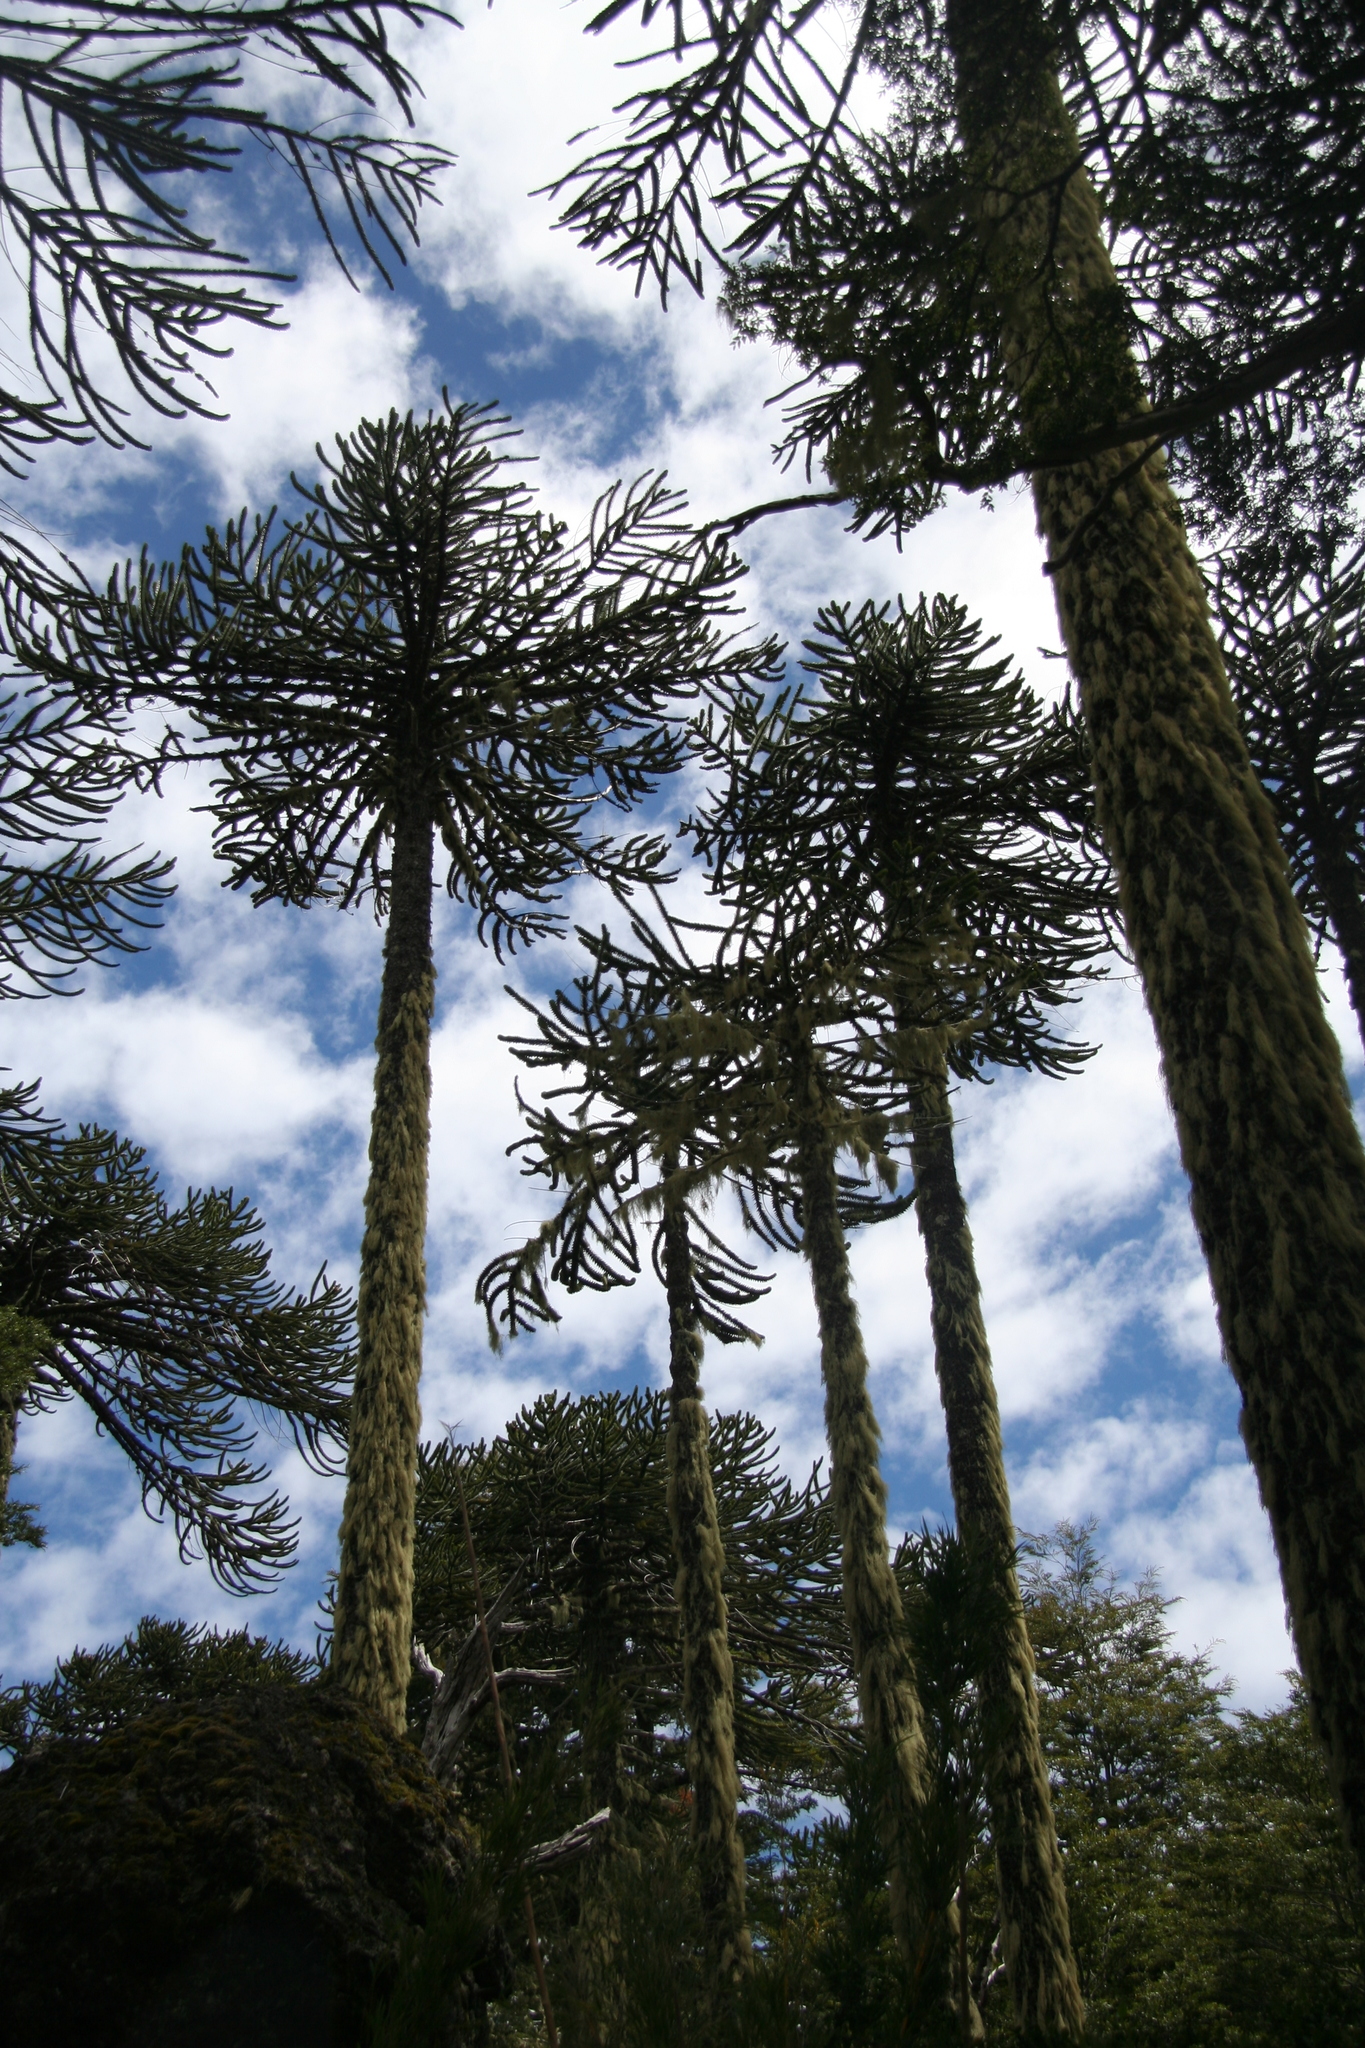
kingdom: Plantae
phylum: Tracheophyta
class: Pinopsida
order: Pinales
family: Araucariaceae
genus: Araucaria
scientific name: Araucaria araucana
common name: Monkey-puzzle
